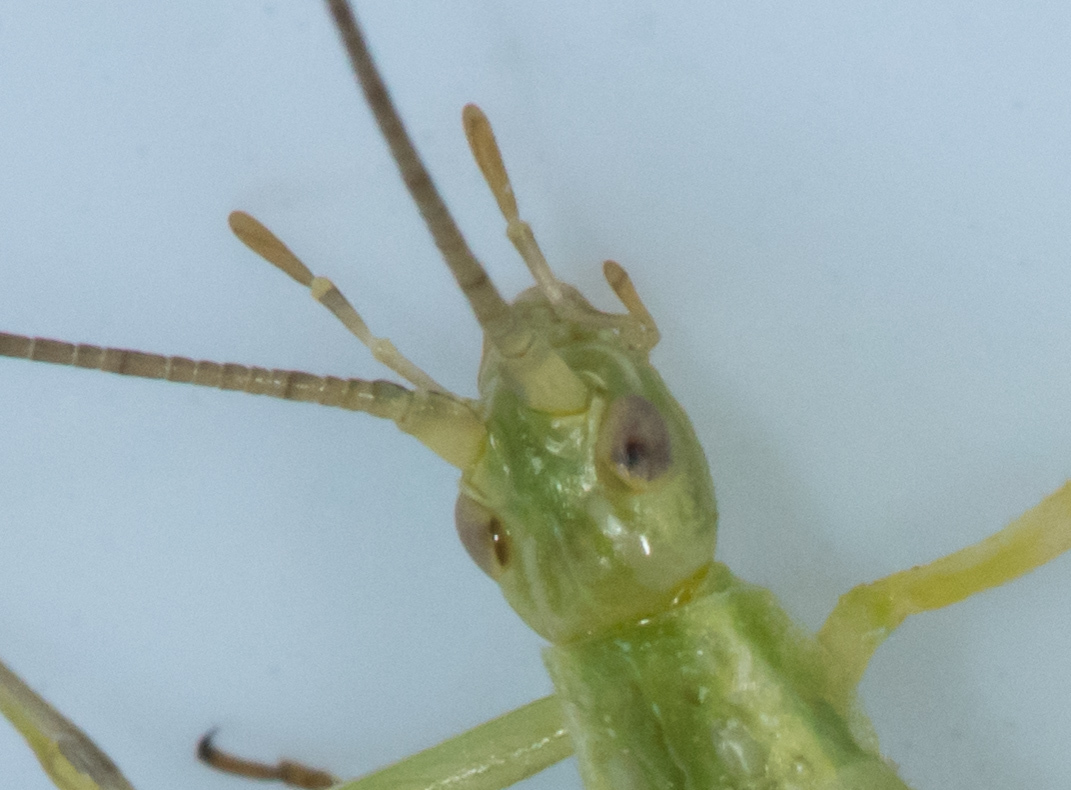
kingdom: Animalia
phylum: Arthropoda
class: Insecta
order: Orthoptera
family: Gryllidae
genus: Oecanthus
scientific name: Oecanthus argentinus
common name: Prairie tree cricket
